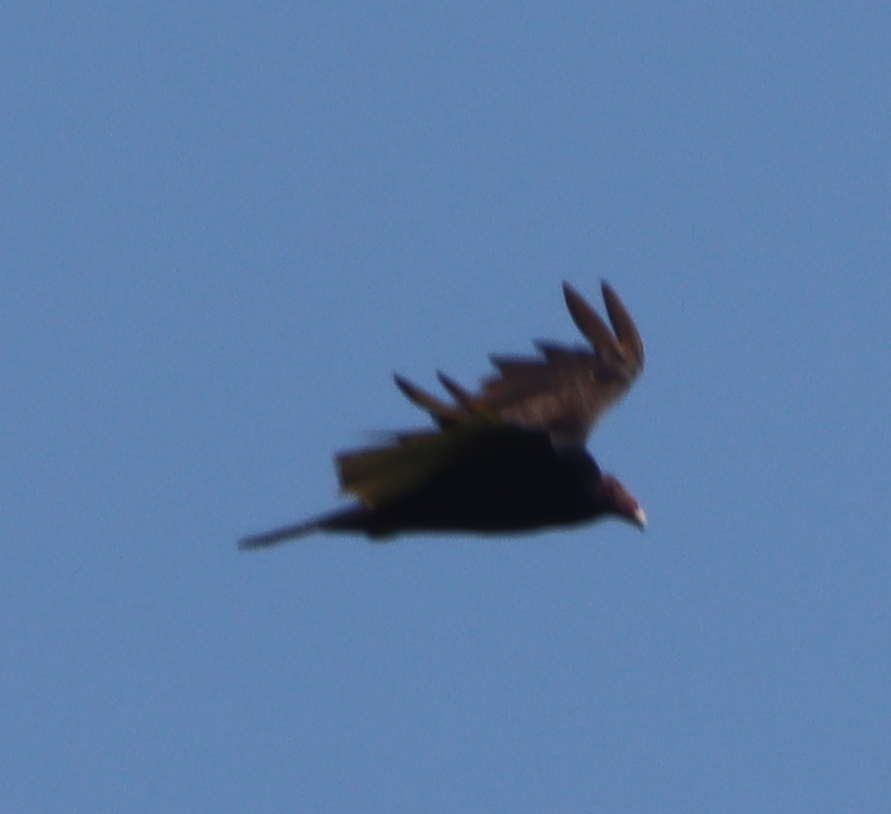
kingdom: Animalia
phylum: Chordata
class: Aves
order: Accipitriformes
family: Cathartidae
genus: Cathartes
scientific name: Cathartes aura
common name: Turkey vulture
